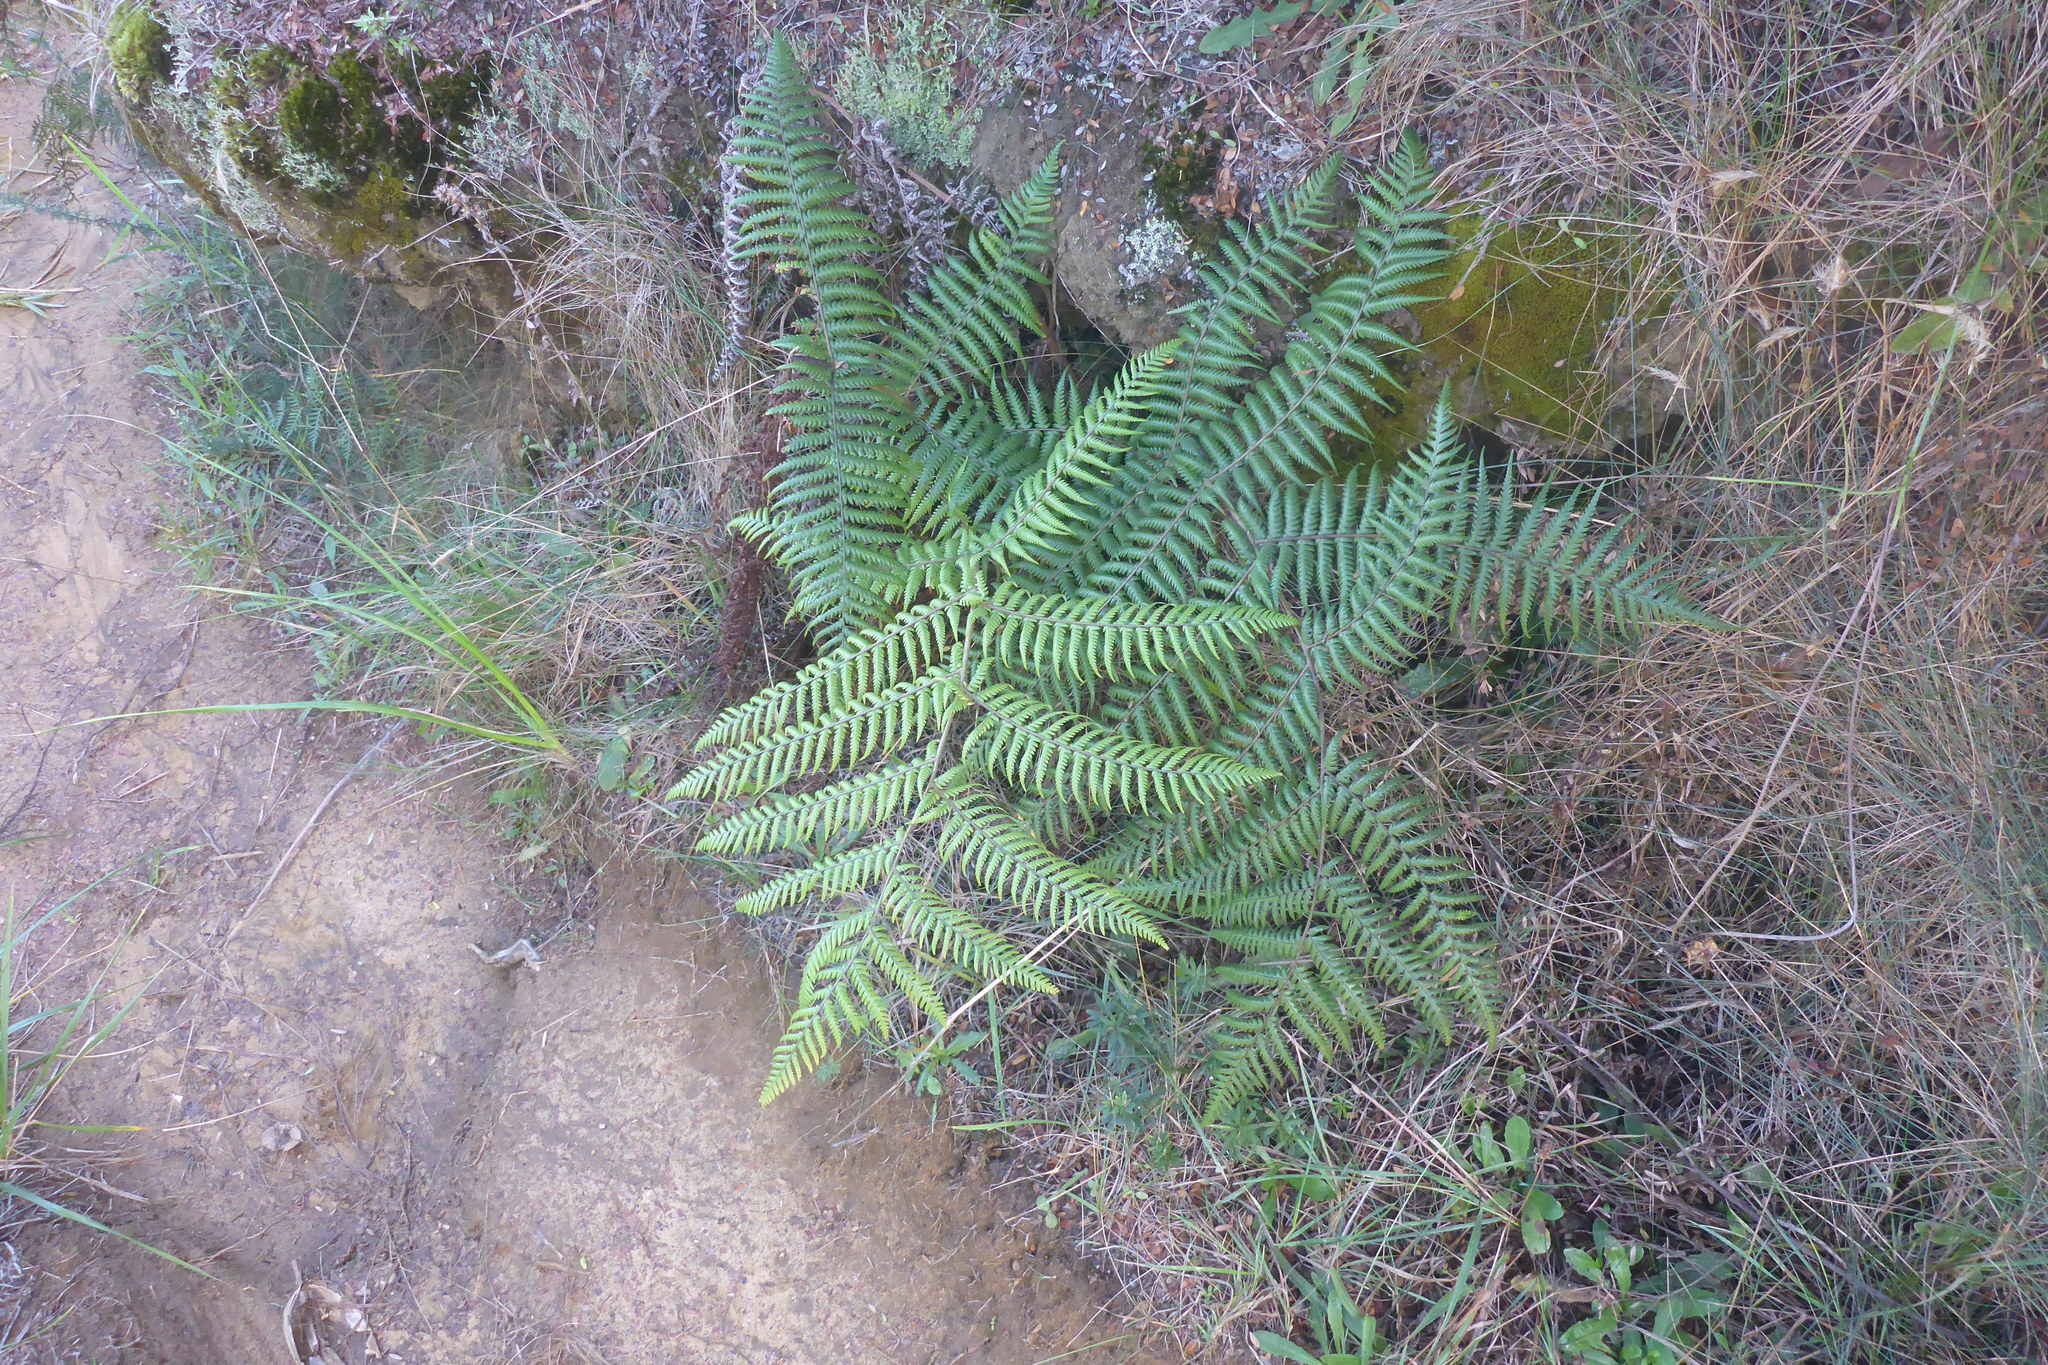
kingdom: Plantae
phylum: Tracheophyta
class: Polypodiopsida
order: Cyatheales
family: Cyatheaceae
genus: Alsophila
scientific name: Alsophila dealbata
